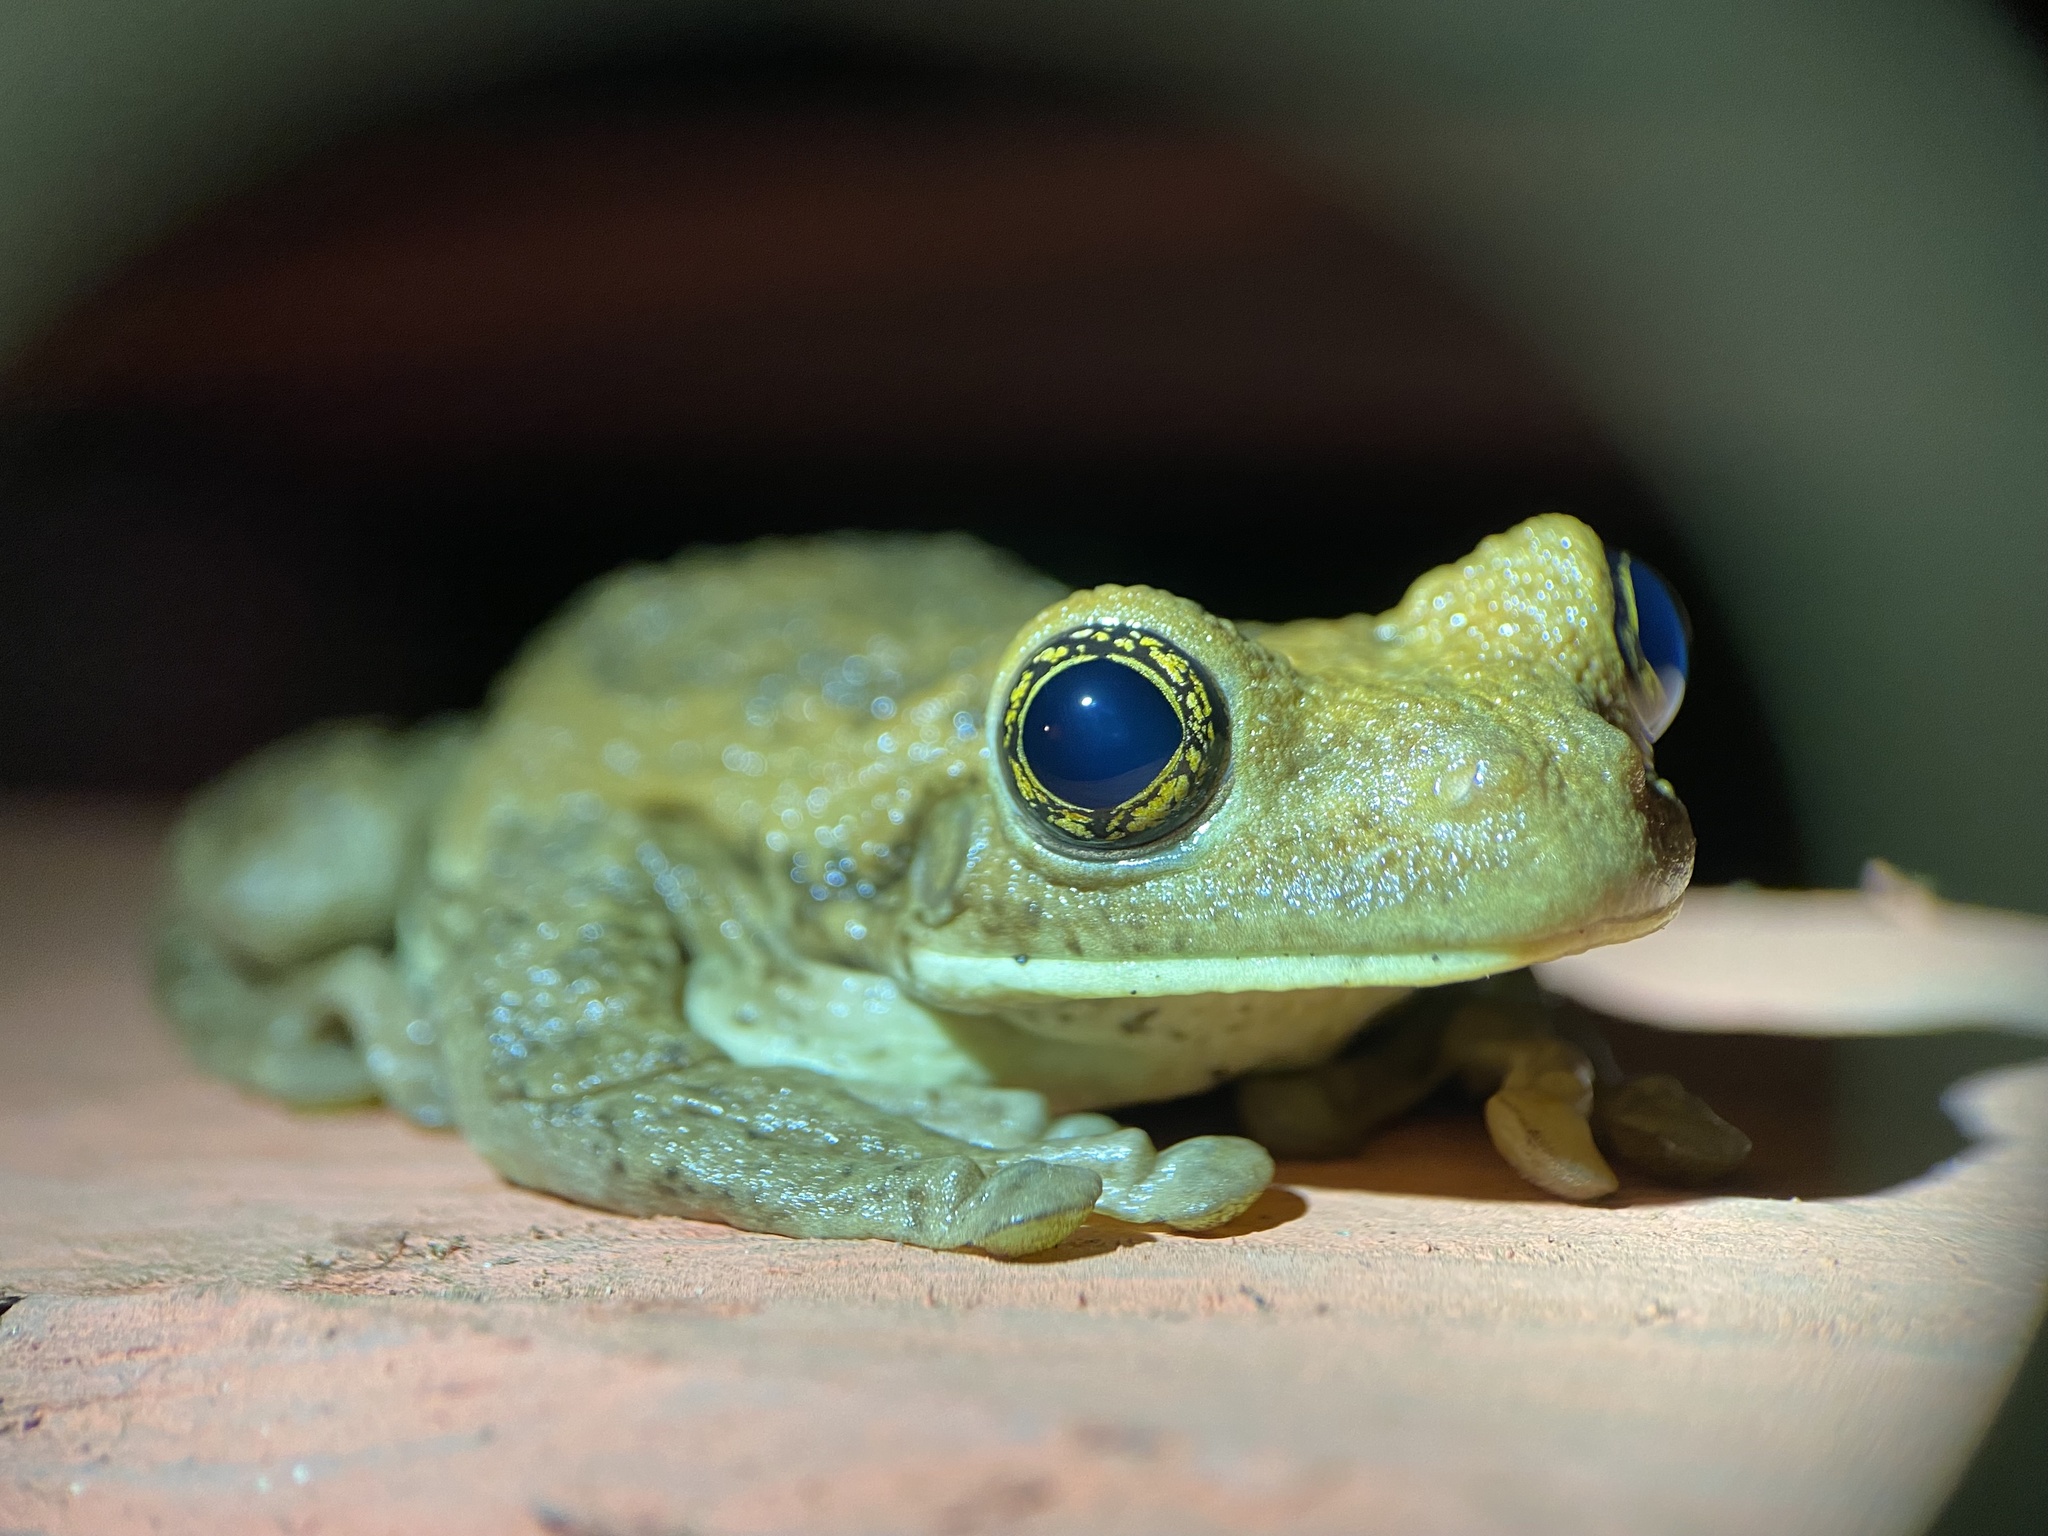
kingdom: Animalia
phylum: Chordata
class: Amphibia
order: Anura
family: Hylidae
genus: Trachycephalus
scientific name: Trachycephalus vermiculatus
